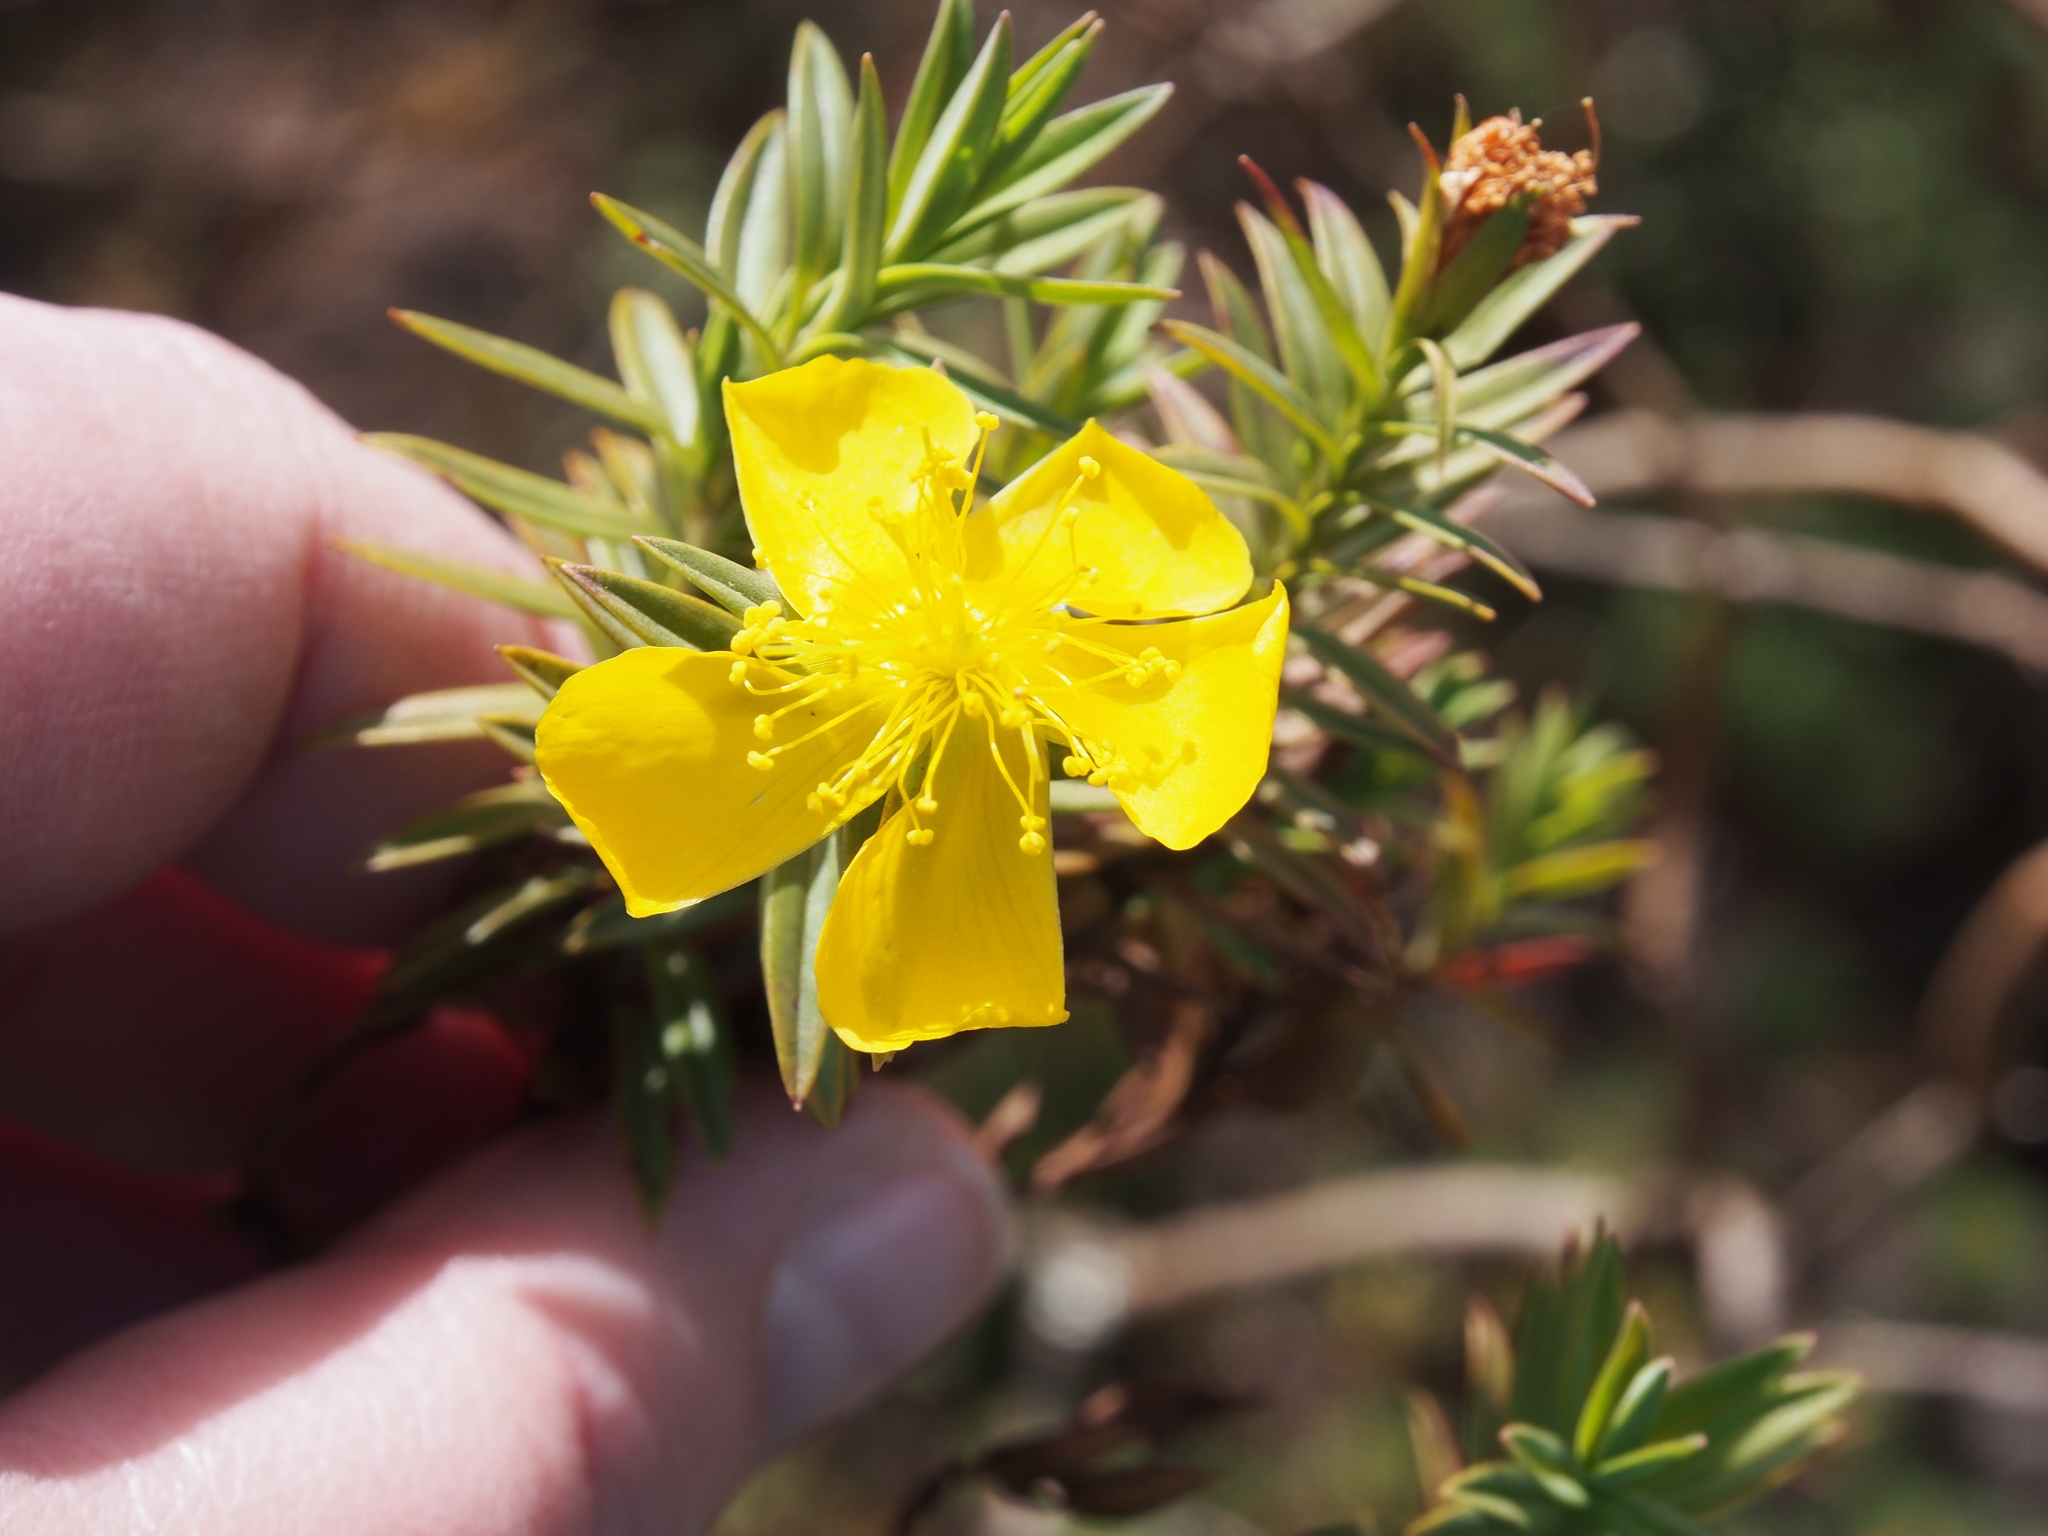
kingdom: Plantae
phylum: Tracheophyta
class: Magnoliopsida
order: Malpighiales
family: Hypericaceae
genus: Hypericum
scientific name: Hypericum irazuense
